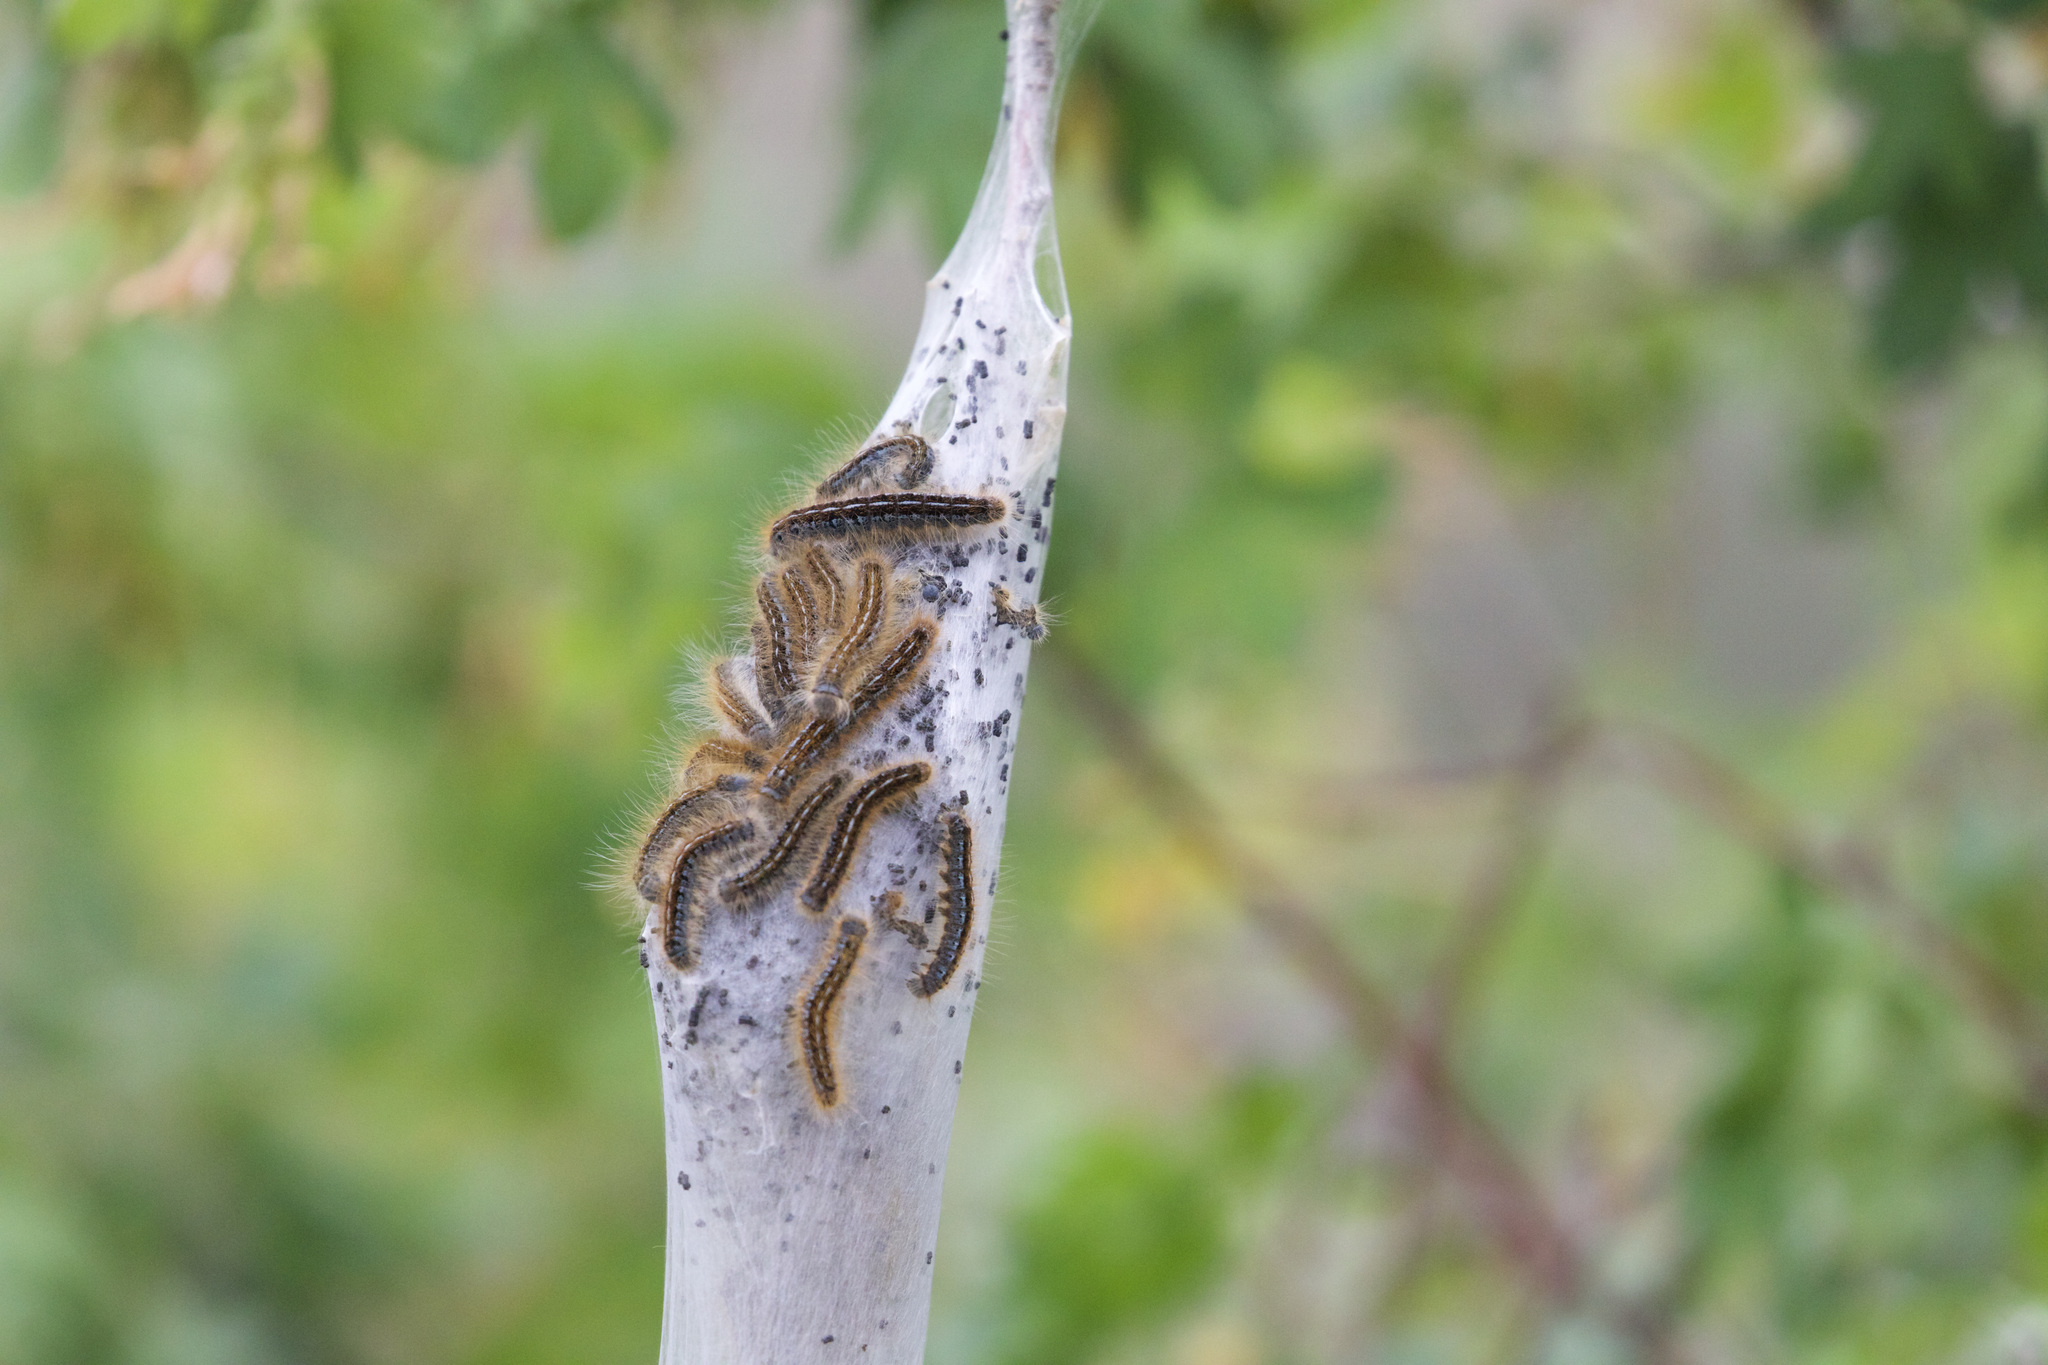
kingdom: Animalia
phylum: Arthropoda
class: Insecta
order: Lepidoptera
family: Lasiocampidae
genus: Malacosoma
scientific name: Malacosoma californica
